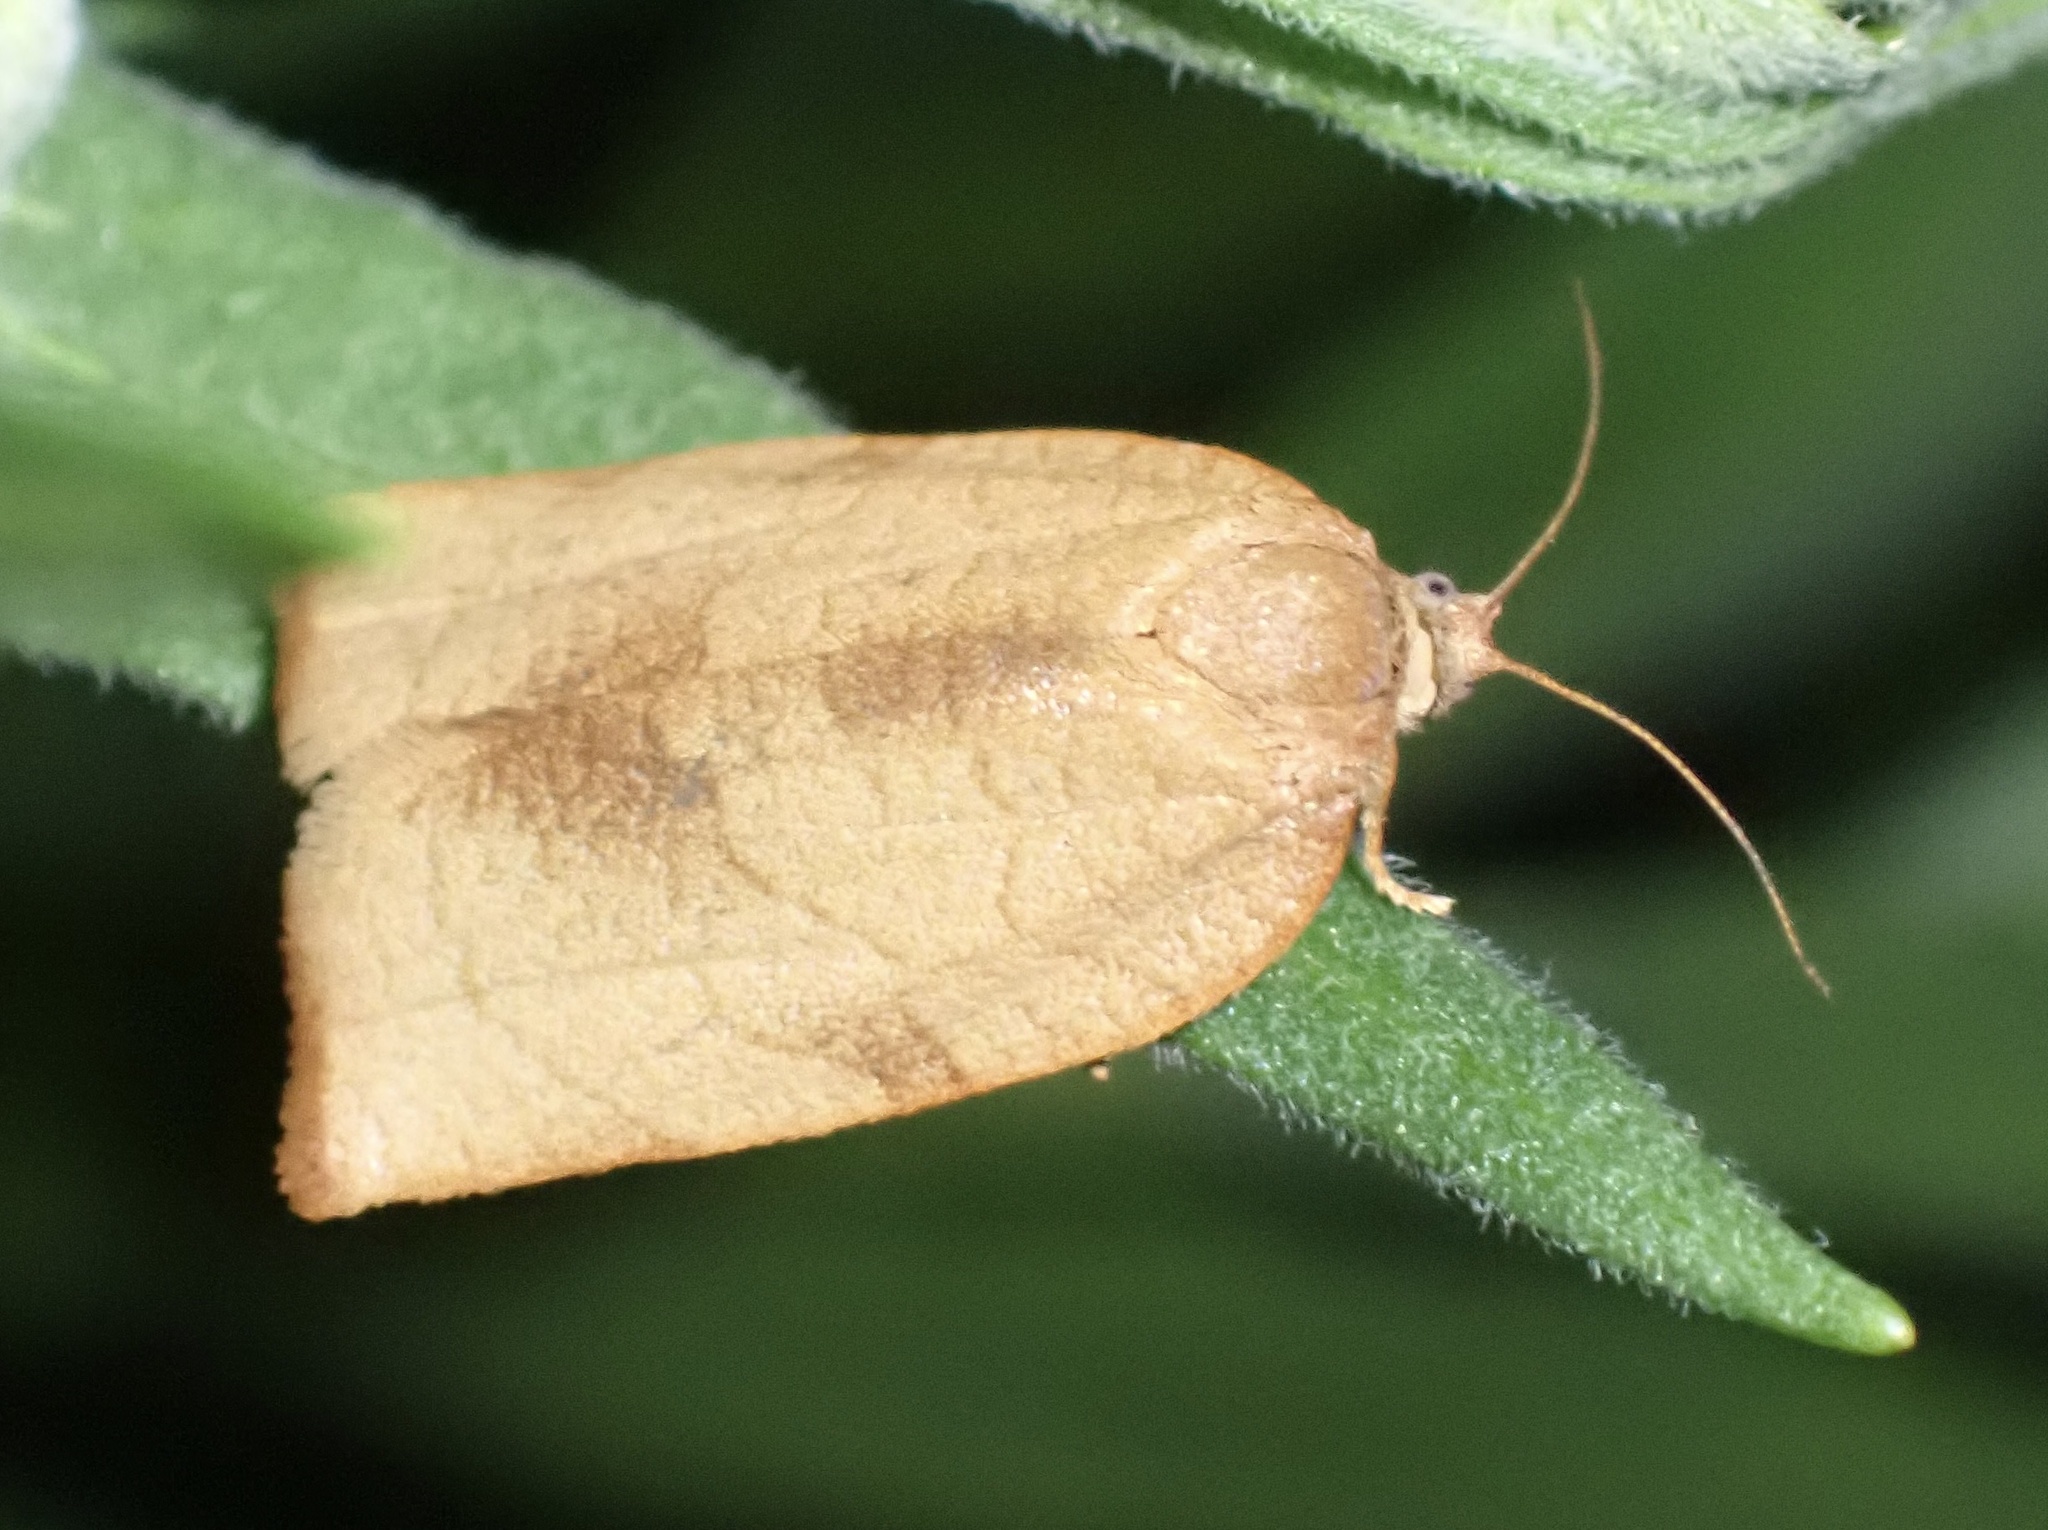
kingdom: Animalia
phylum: Arthropoda
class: Insecta
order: Lepidoptera
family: Tortricidae
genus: Cacoecimorpha
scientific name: Cacoecimorpha pronubana
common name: Carnation tortrix
